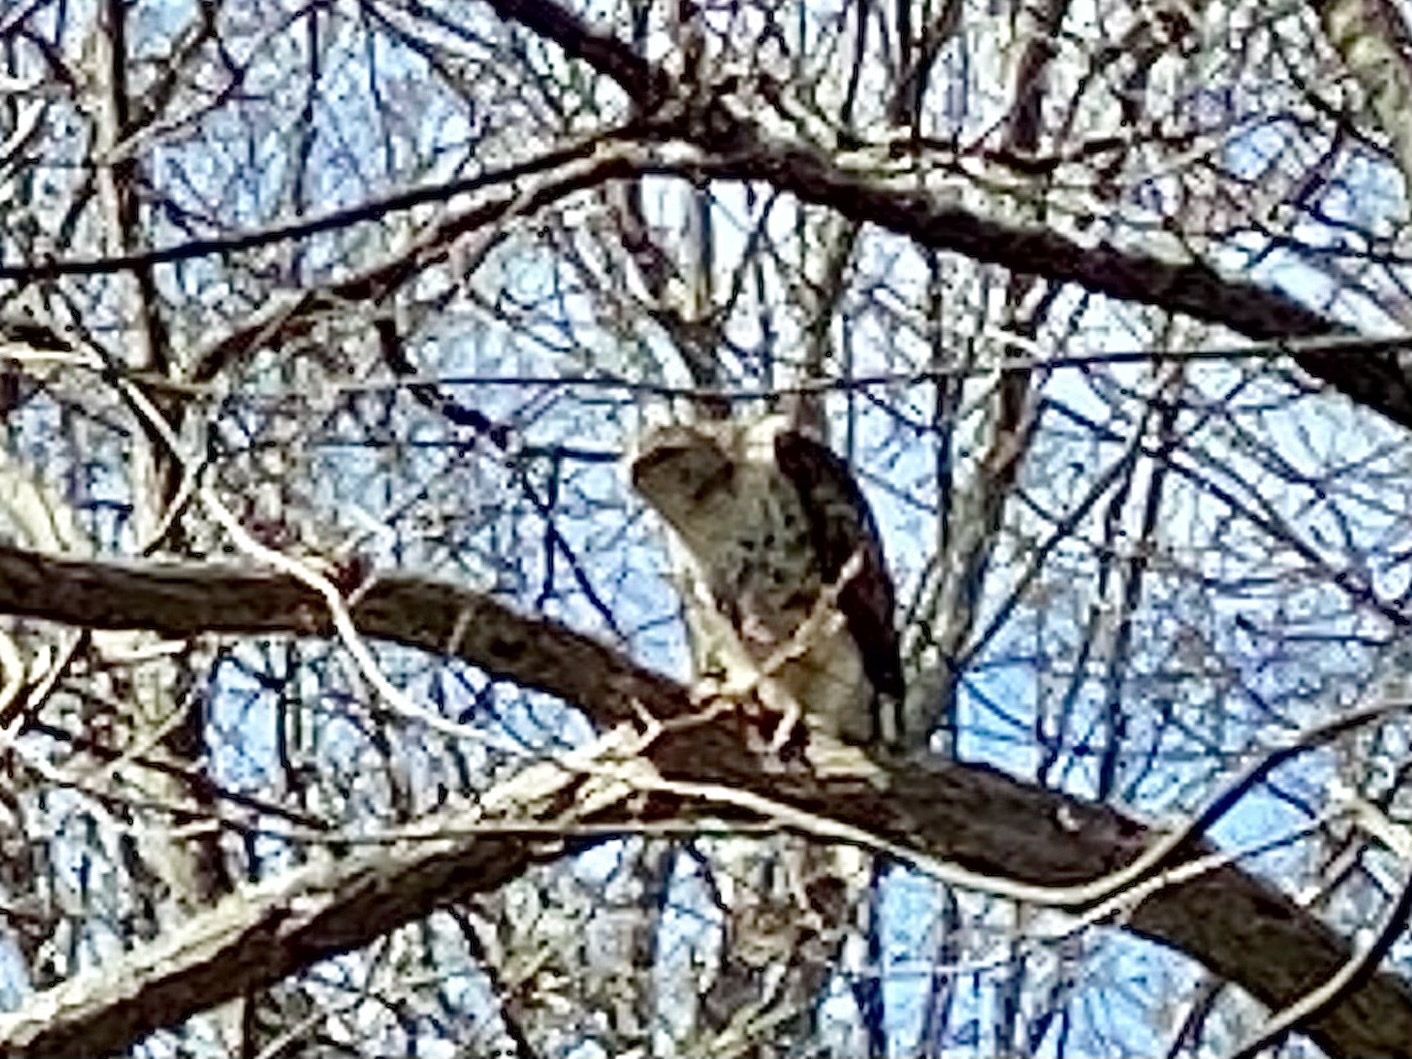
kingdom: Animalia
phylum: Chordata
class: Aves
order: Accipitriformes
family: Accipitridae
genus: Buteo
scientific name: Buteo jamaicensis
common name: Red-tailed hawk
